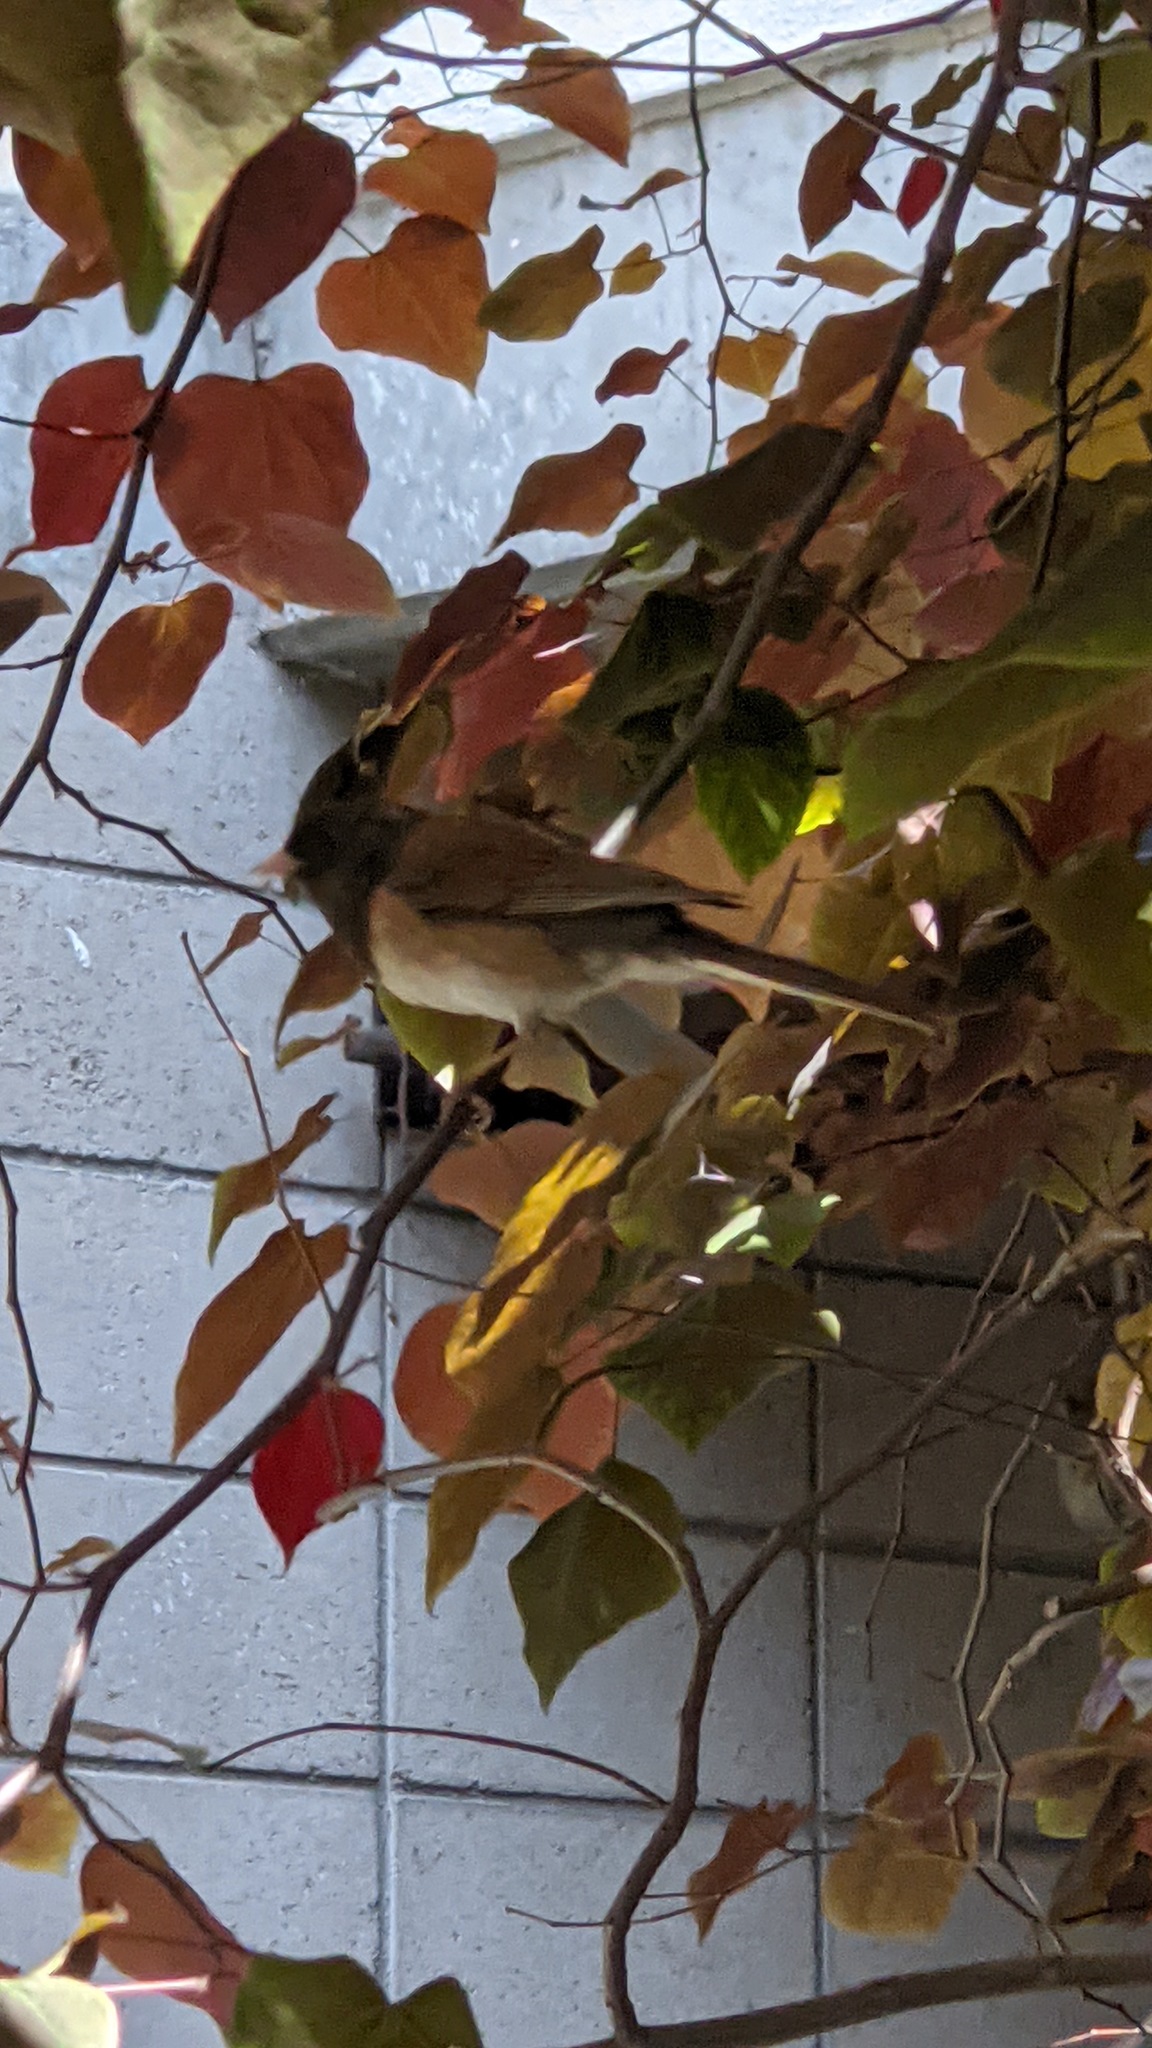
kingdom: Animalia
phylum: Chordata
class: Aves
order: Passeriformes
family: Passerellidae
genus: Junco
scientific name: Junco hyemalis
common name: Dark-eyed junco
